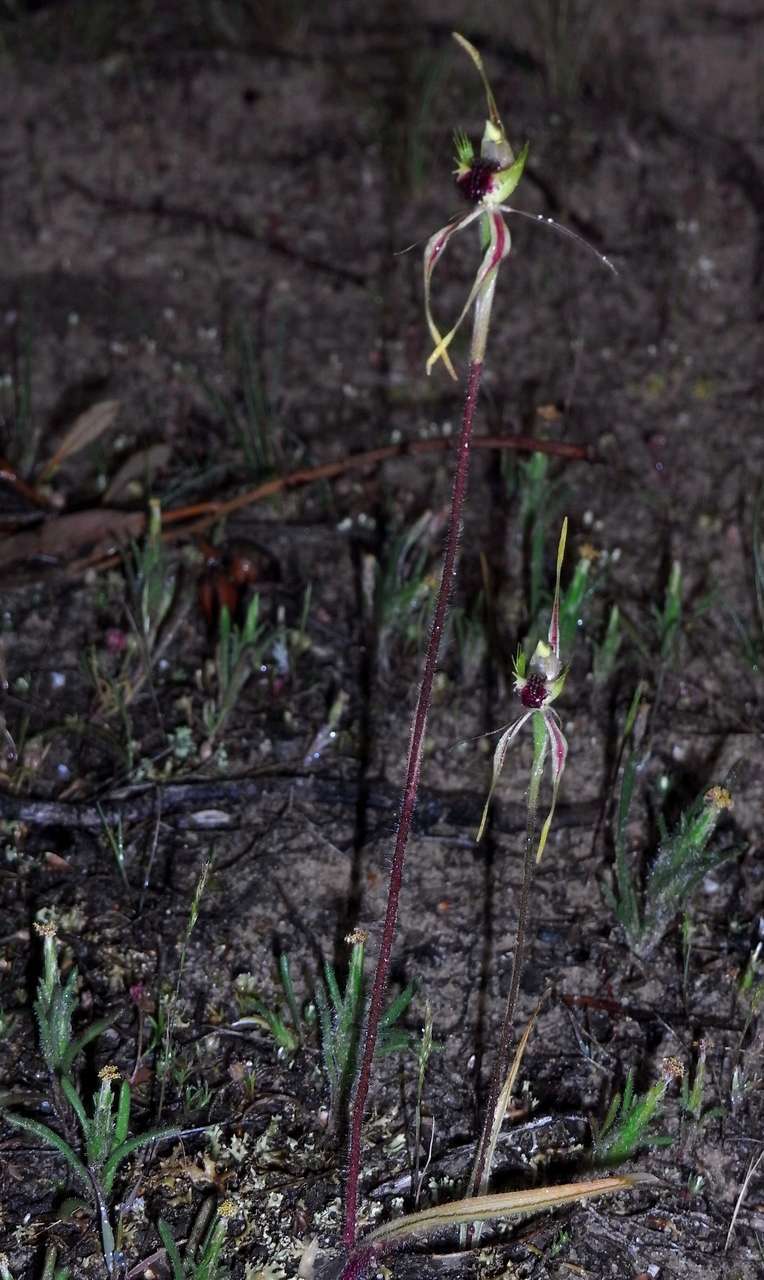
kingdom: Plantae
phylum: Tracheophyta
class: Liliopsida
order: Asparagales
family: Orchidaceae
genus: Caladenia
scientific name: Caladenia verrucosa
